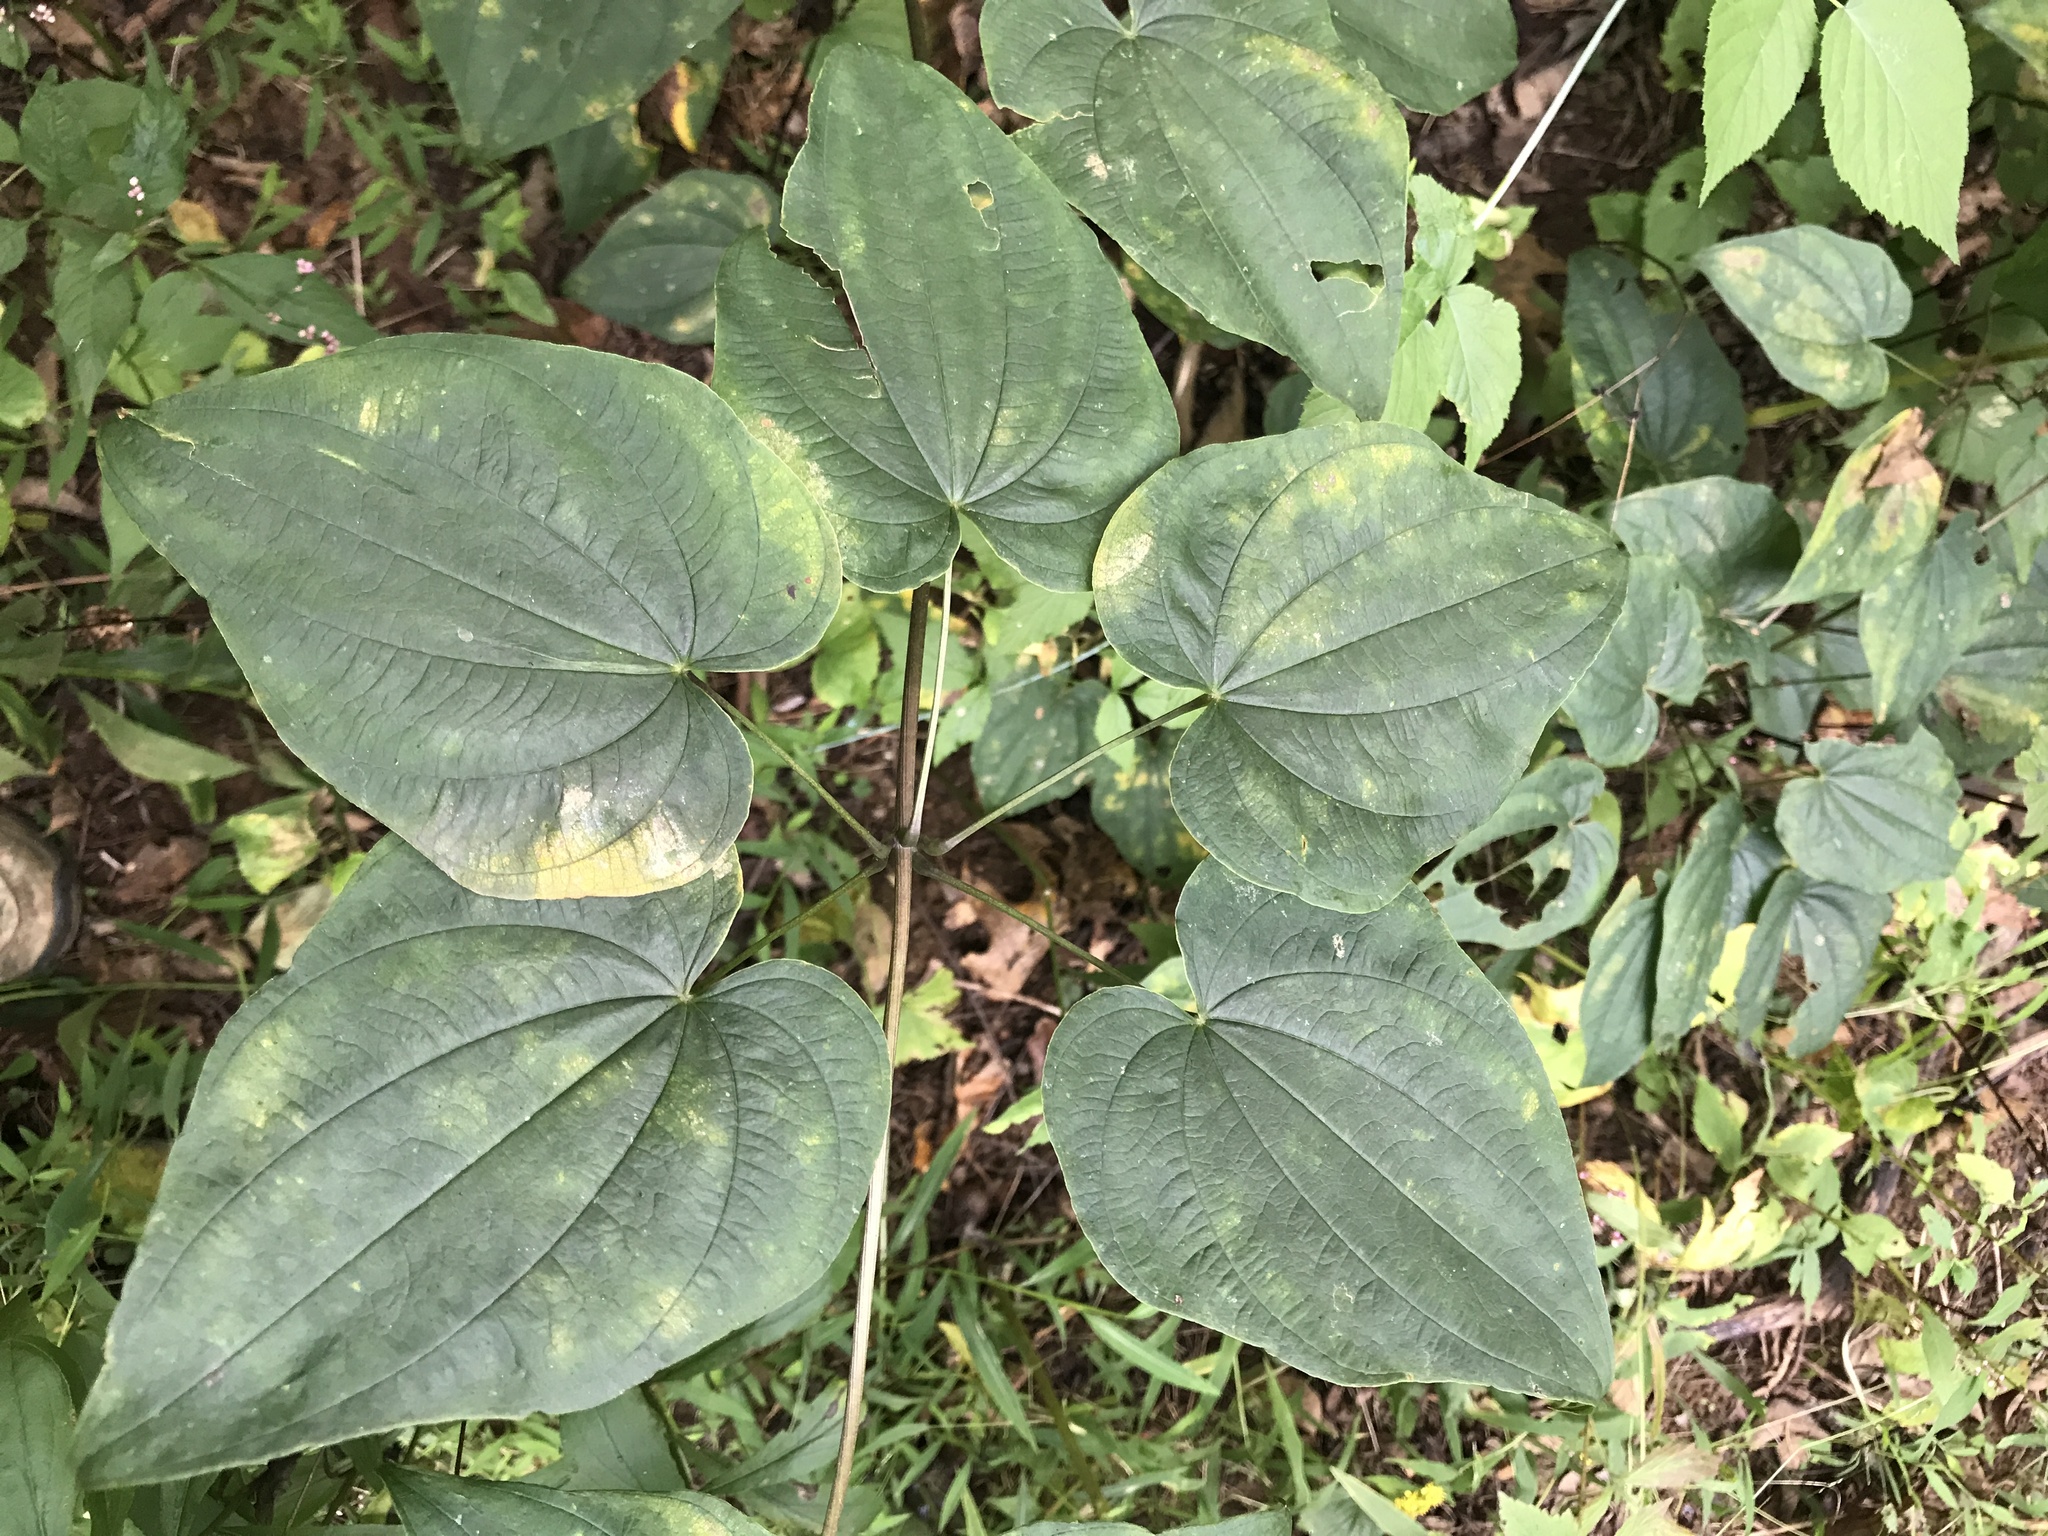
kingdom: Plantae
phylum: Tracheophyta
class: Liliopsida
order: Dioscoreales
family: Dioscoreaceae
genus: Dioscorea
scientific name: Dioscorea villosa
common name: Wild yam
